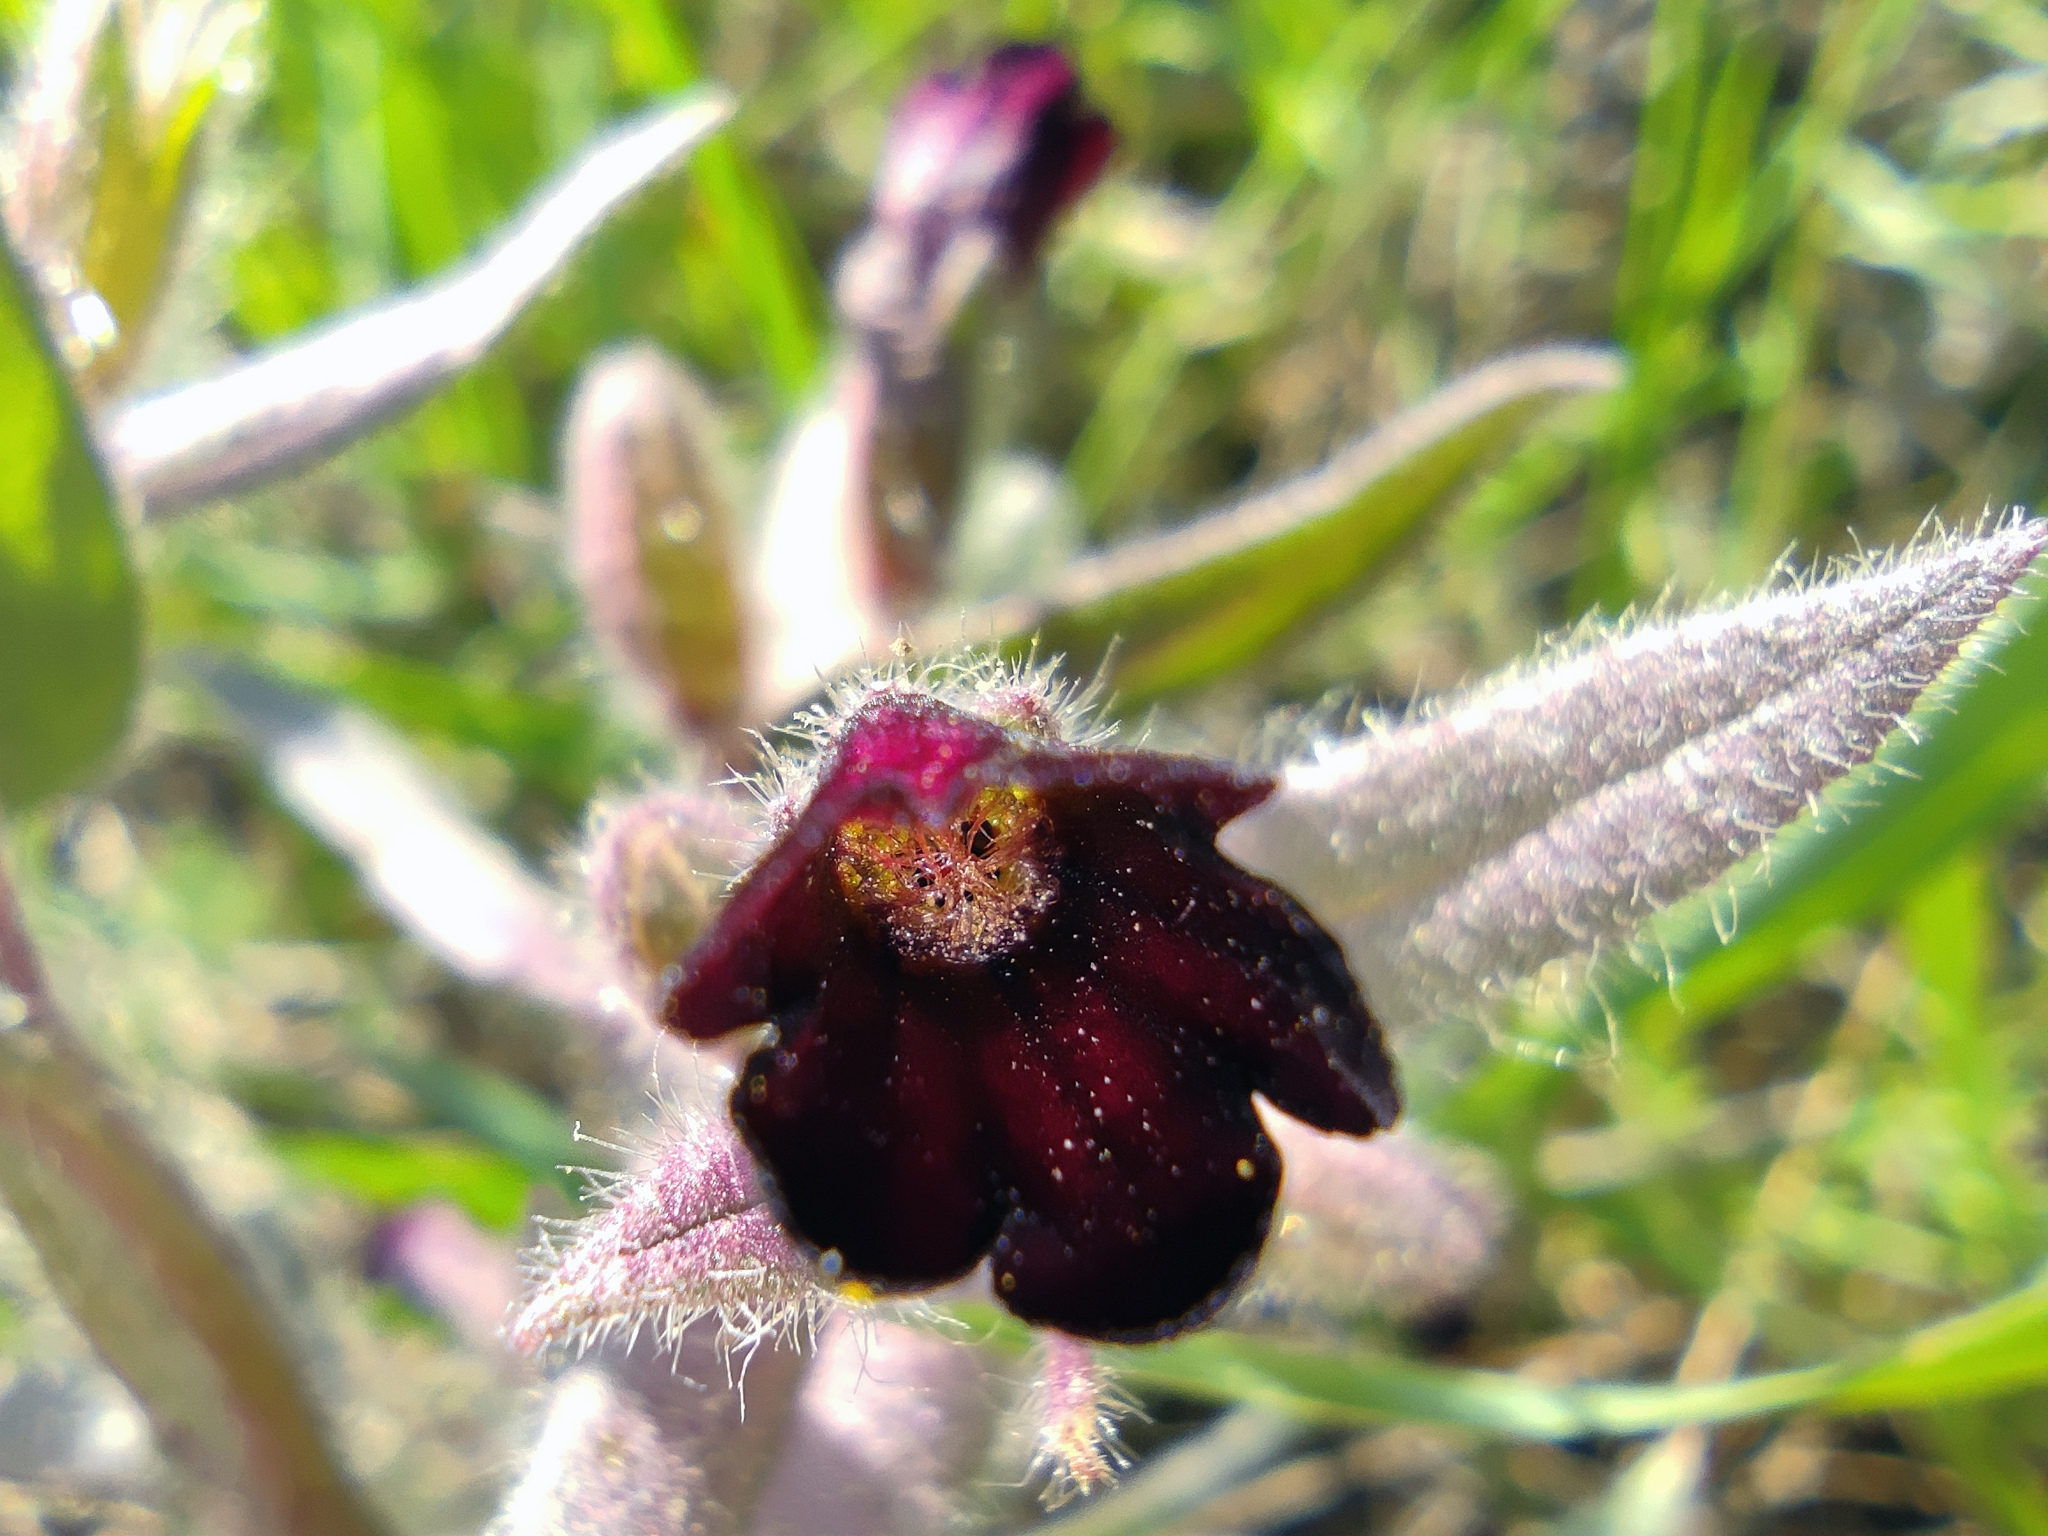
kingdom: Plantae
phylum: Tracheophyta
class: Magnoliopsida
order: Boraginales
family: Boraginaceae
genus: Nonea
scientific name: Nonea pulla
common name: Brown nonea
